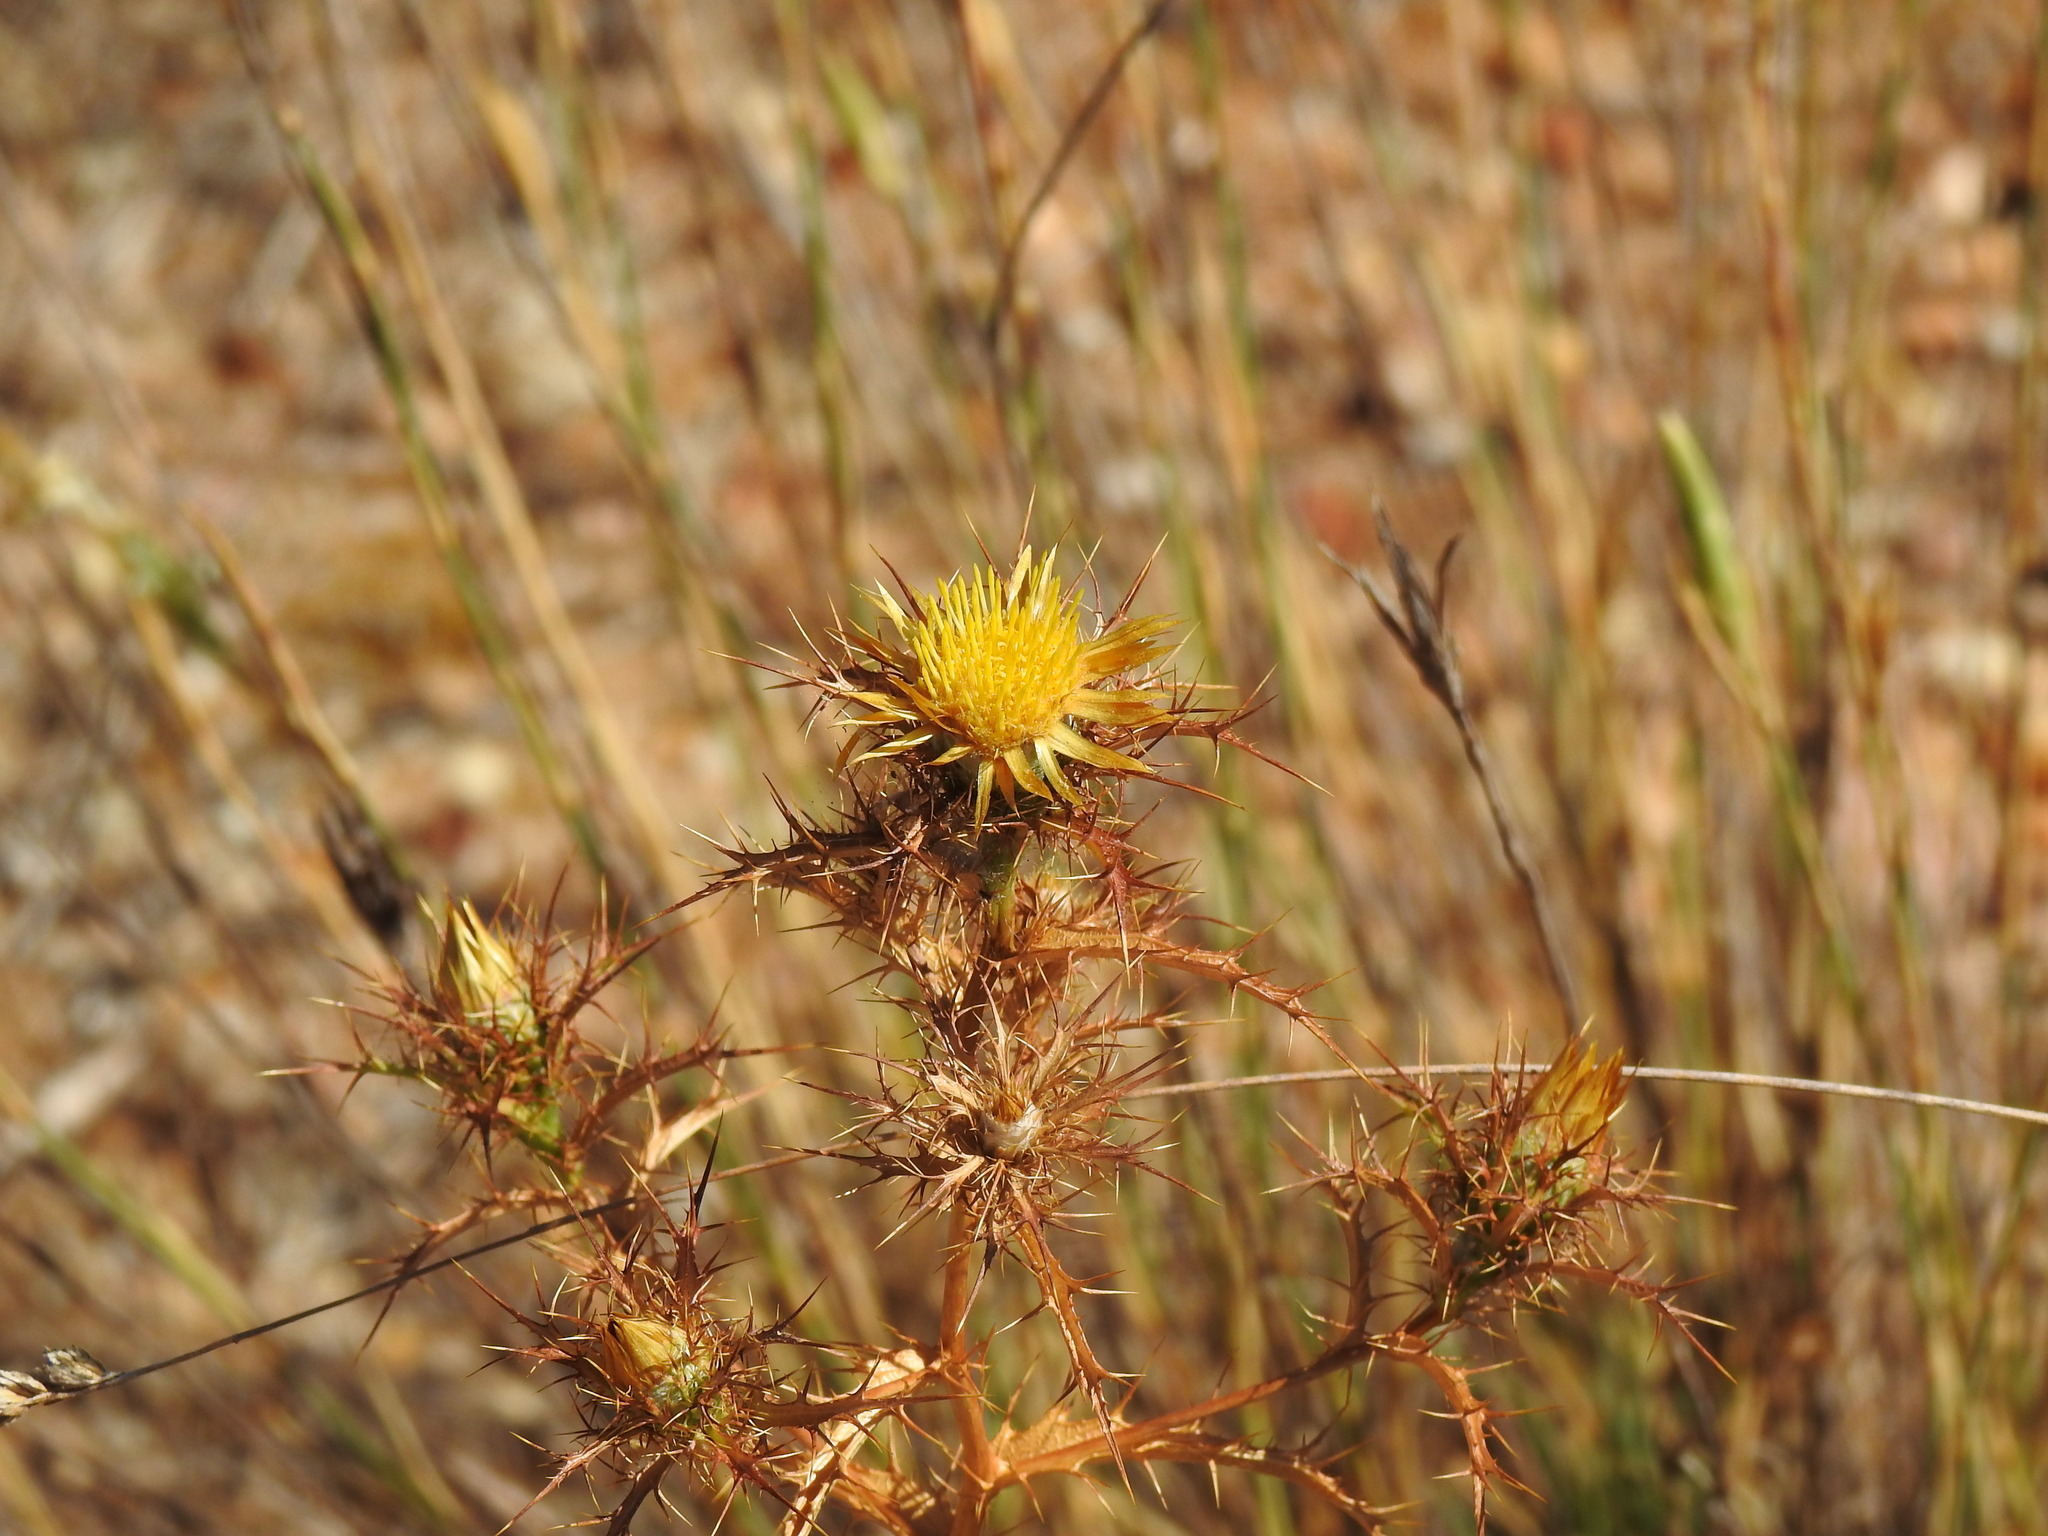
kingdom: Plantae
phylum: Tracheophyta
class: Magnoliopsida
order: Asterales
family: Asteraceae
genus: Carlina
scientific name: Carlina hispanica
